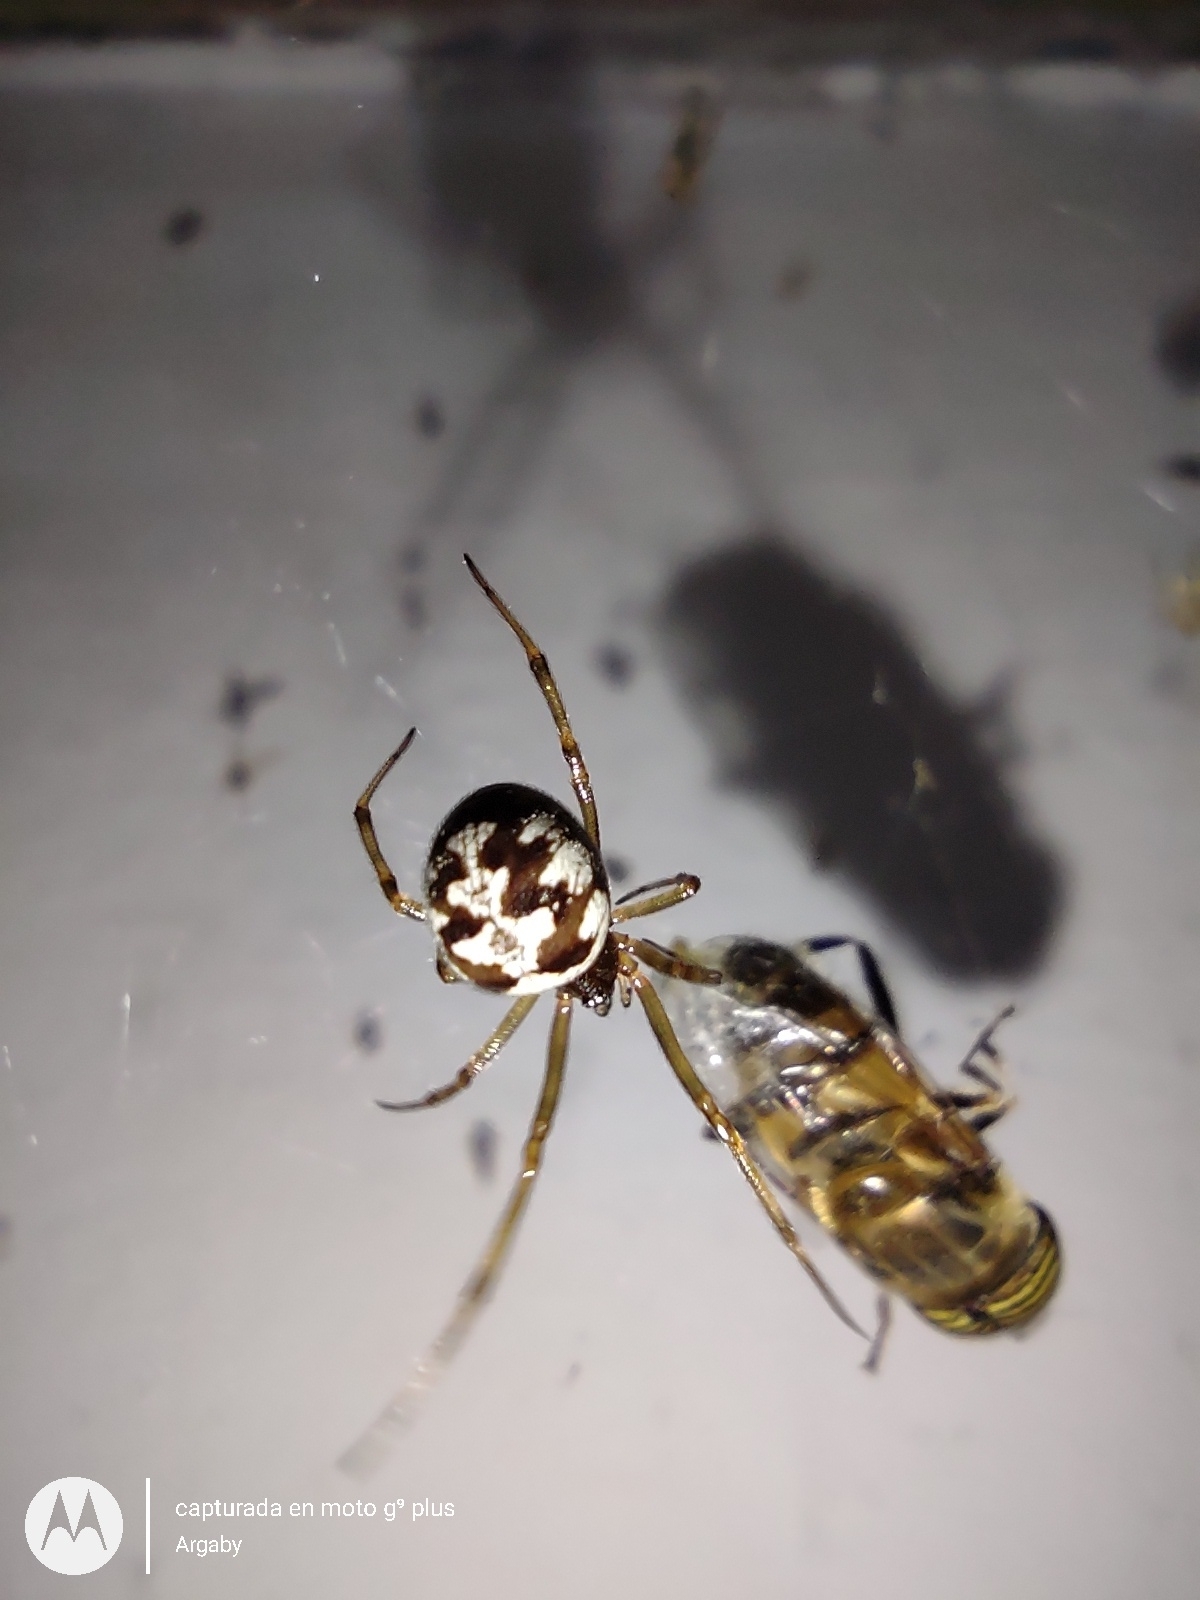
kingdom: Animalia
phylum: Arthropoda
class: Arachnida
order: Araneae
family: Theridiidae
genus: Steatoda
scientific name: Steatoda triangulosa
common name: Triangulate bud spider
